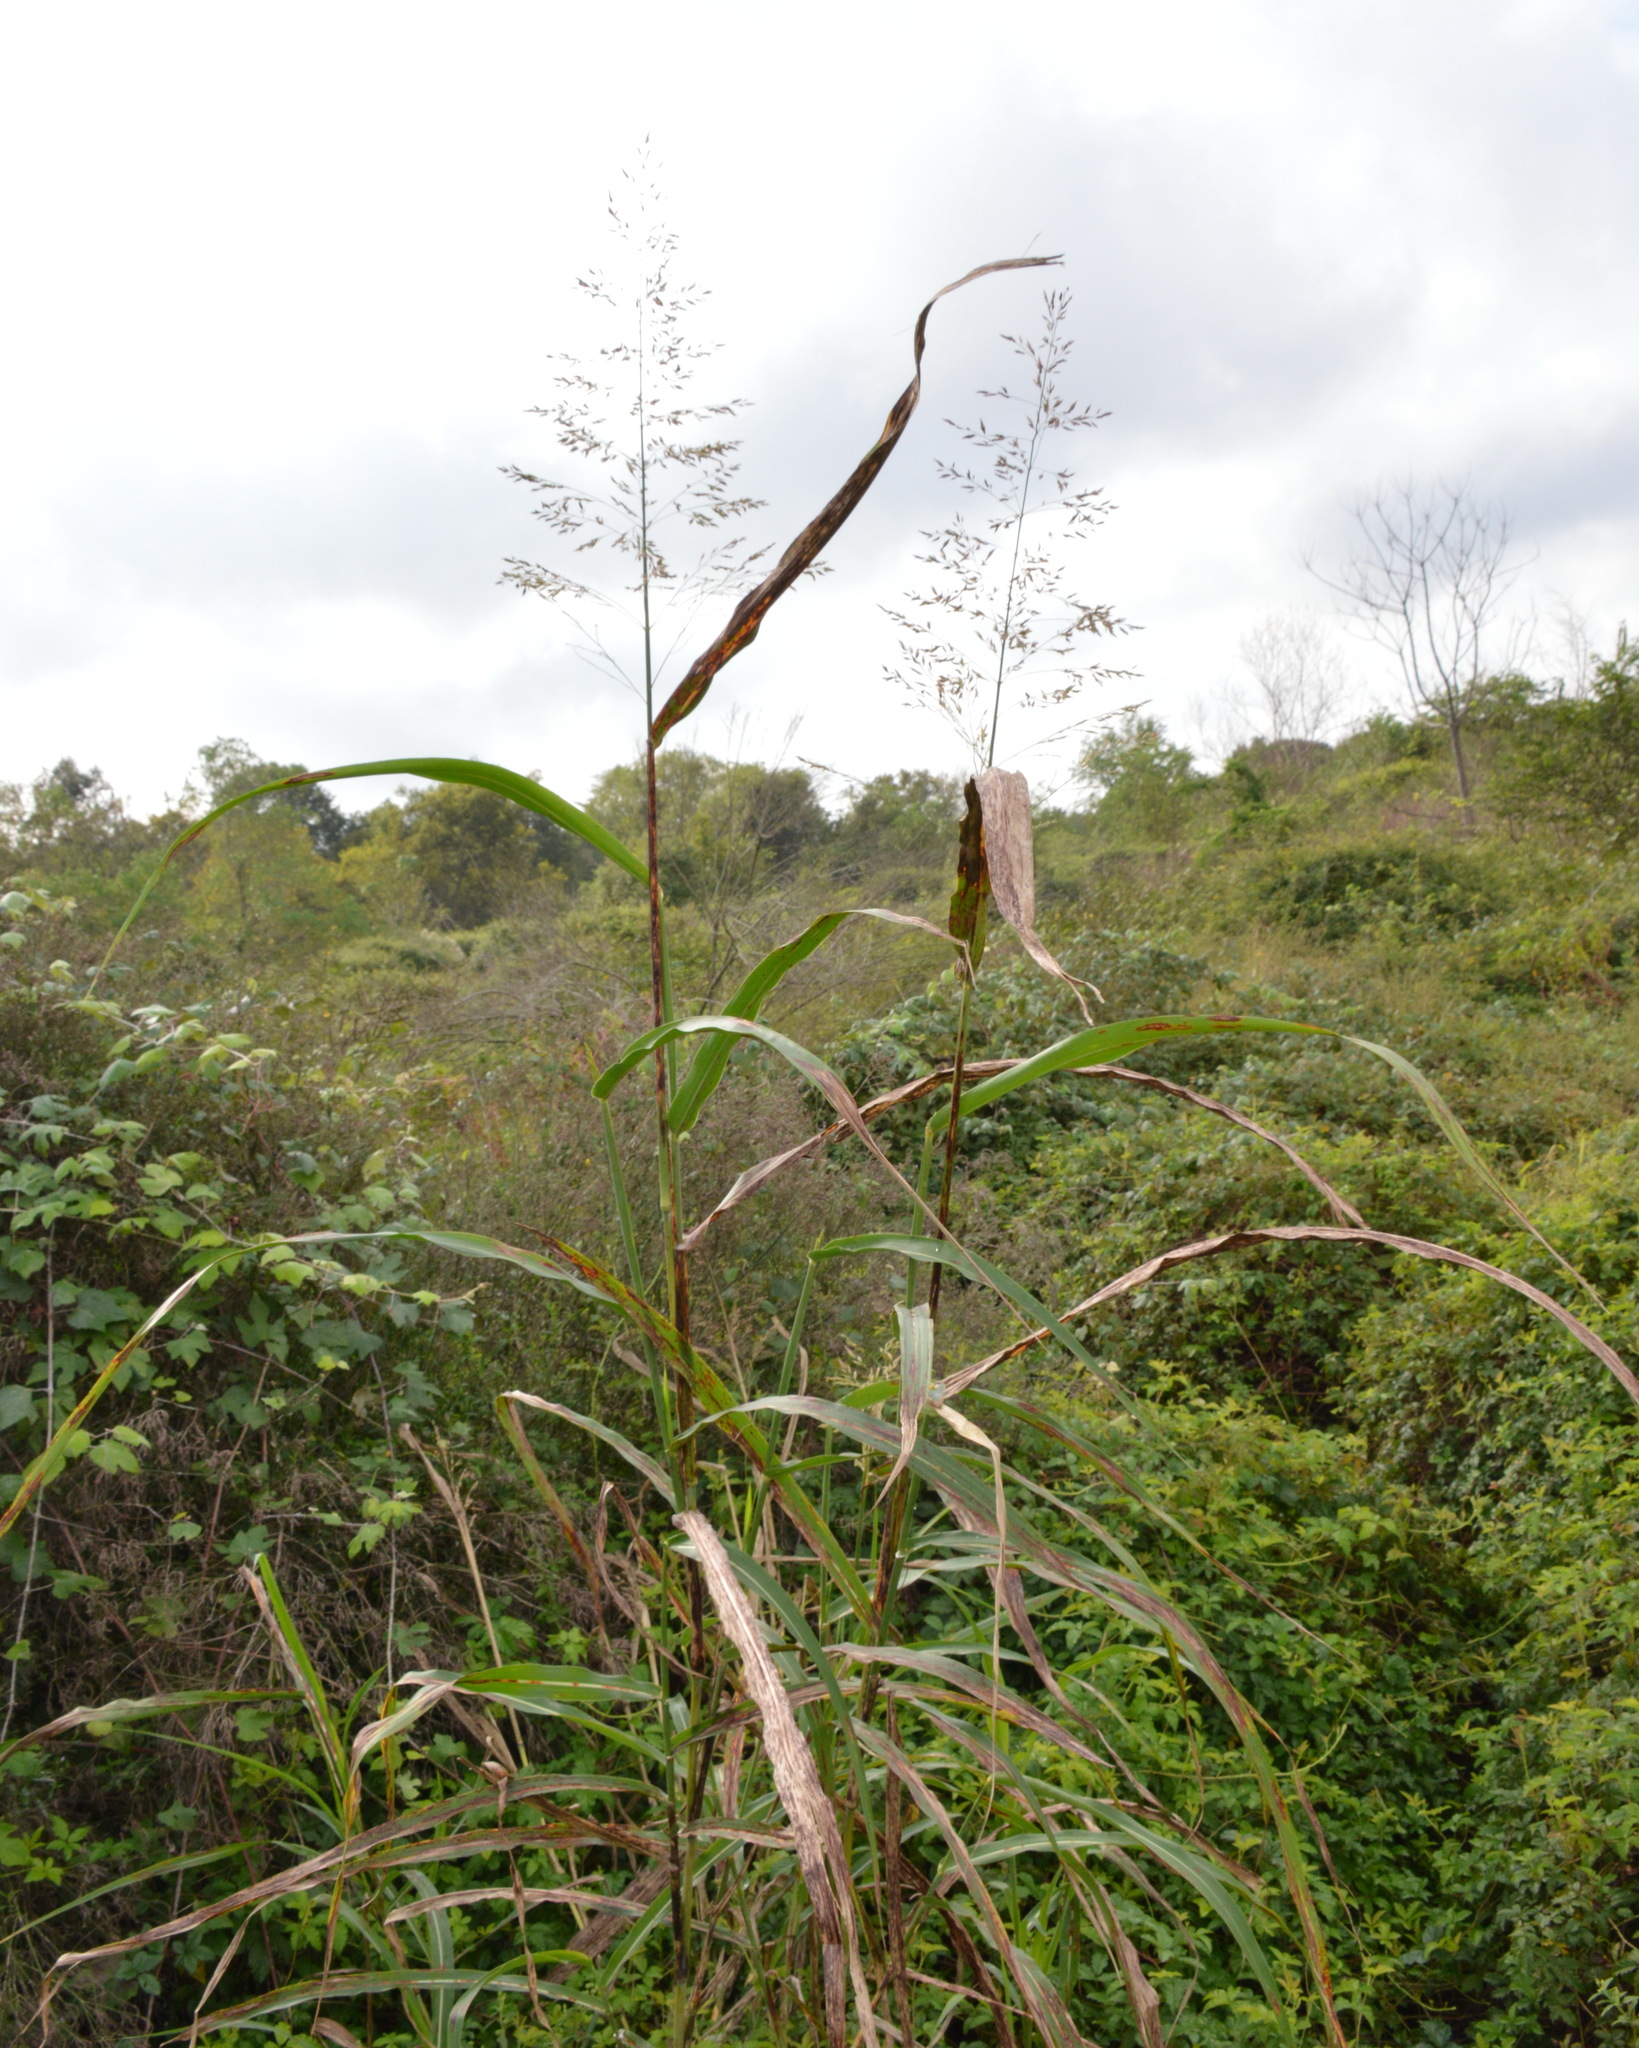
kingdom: Plantae
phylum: Tracheophyta
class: Liliopsida
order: Poales
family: Poaceae
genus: Sorghum
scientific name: Sorghum halepense
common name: Johnson-grass
